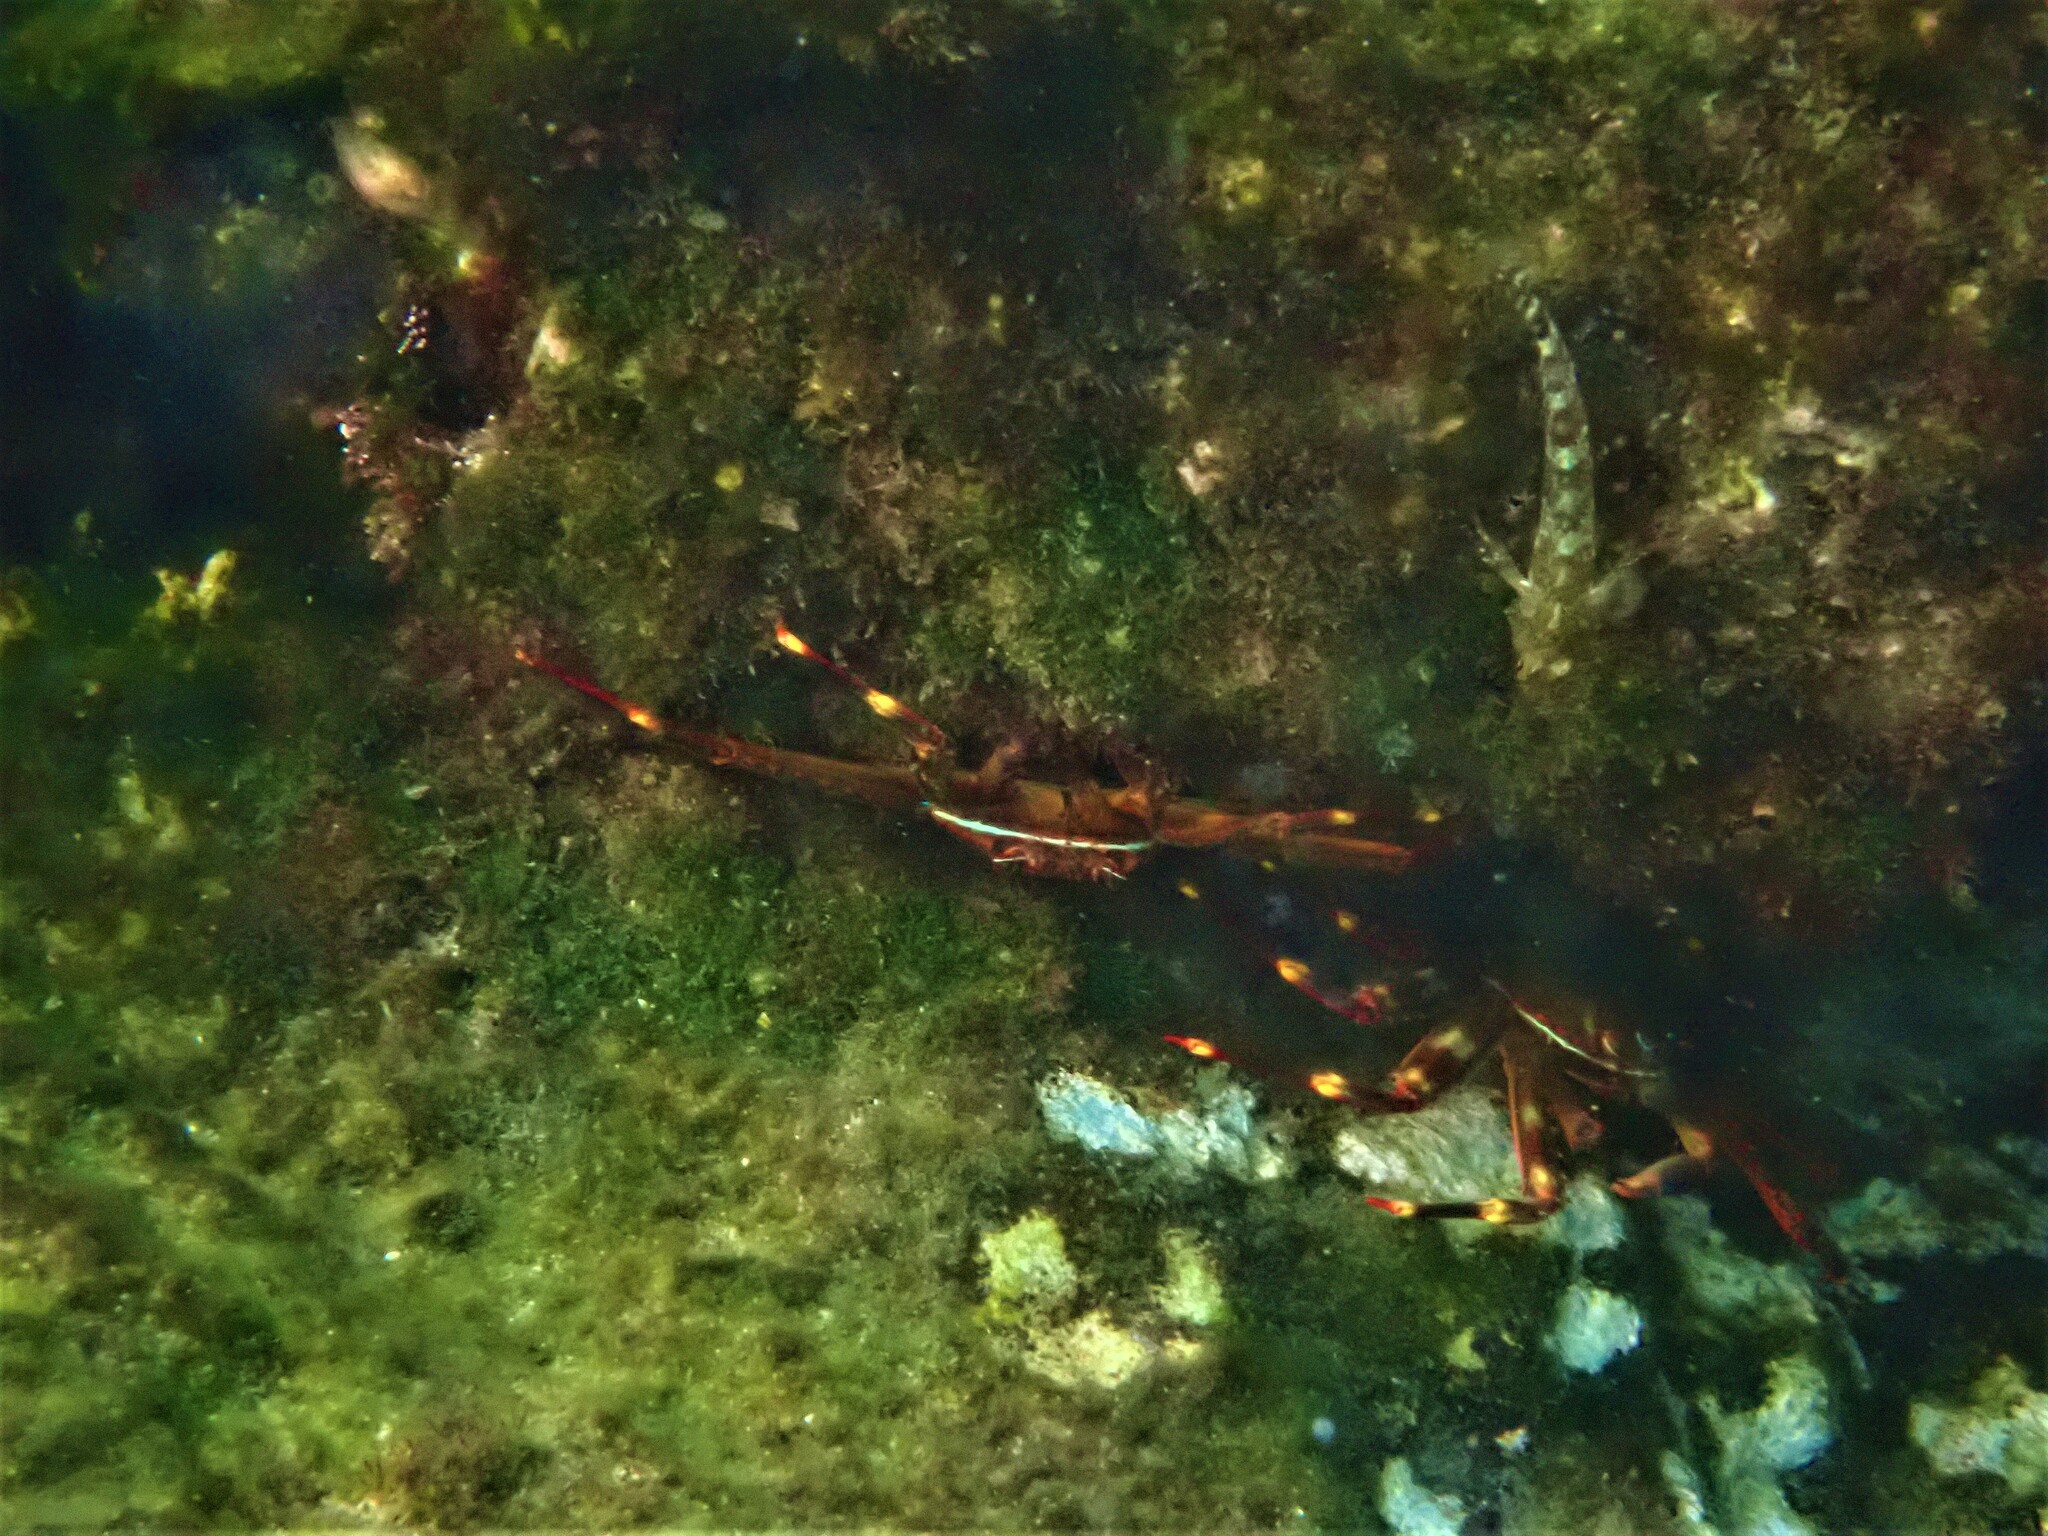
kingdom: Animalia
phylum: Arthropoda
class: Malacostraca
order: Decapoda
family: Percnidae
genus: Percnon
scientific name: Percnon gibbesi
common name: Nimble spray crab
